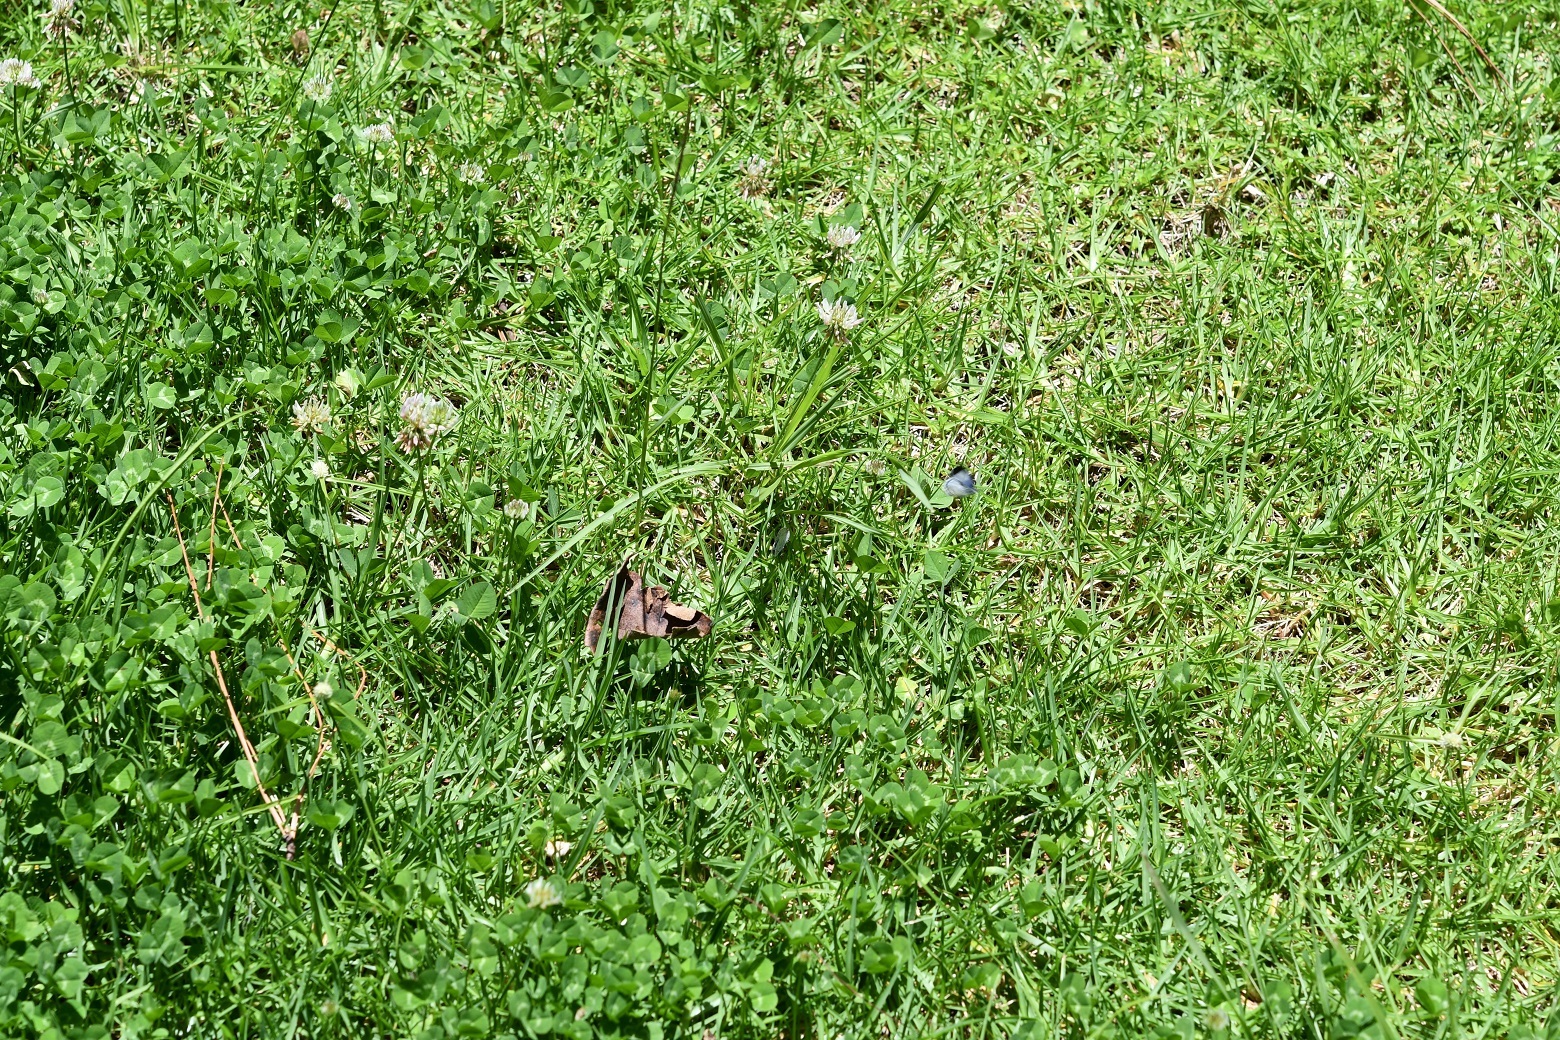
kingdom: Plantae
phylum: Tracheophyta
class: Magnoliopsida
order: Fabales
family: Fabaceae
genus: Trifolium
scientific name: Trifolium repens
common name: White clover
